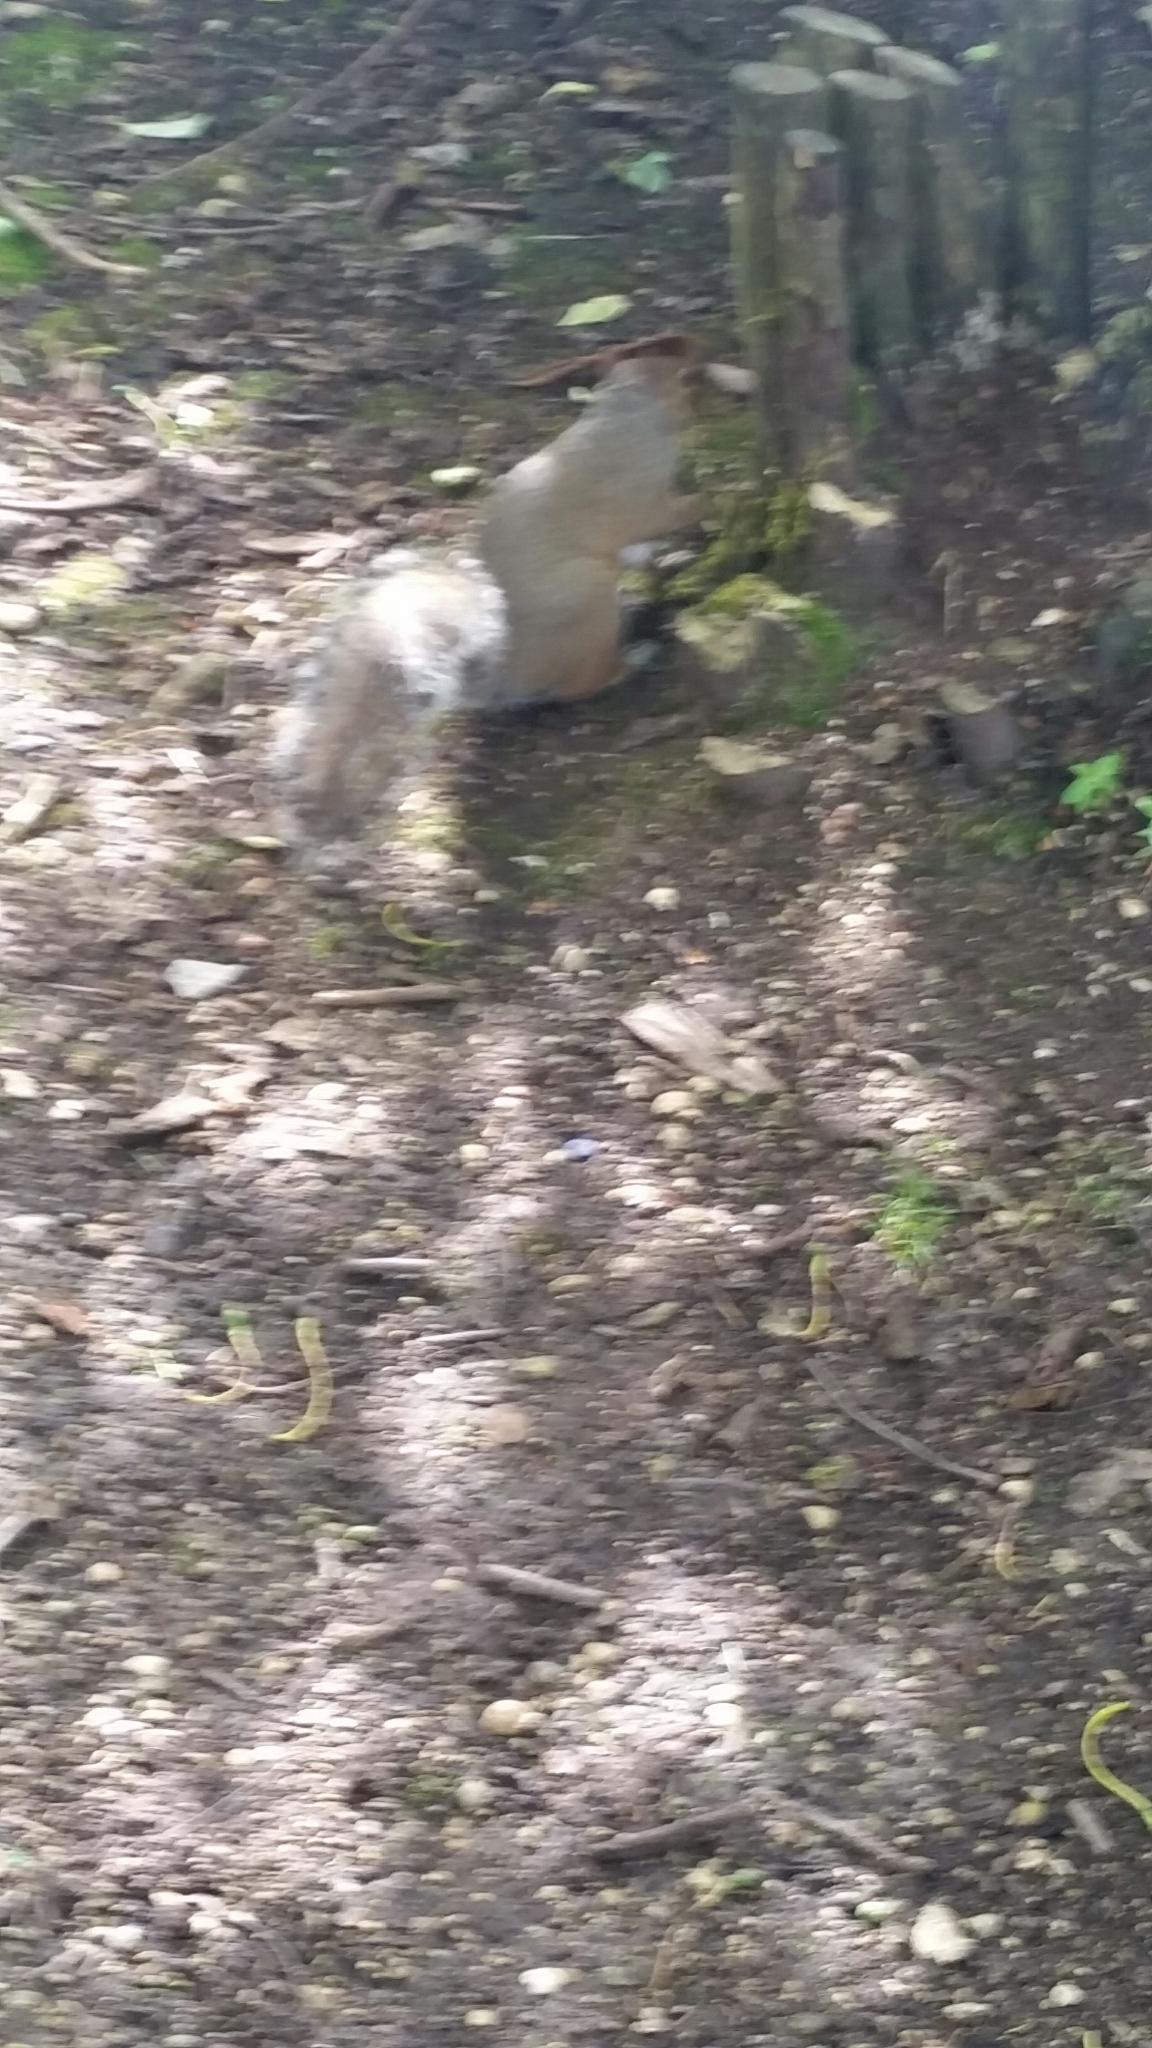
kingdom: Animalia
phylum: Chordata
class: Mammalia
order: Rodentia
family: Sciuridae
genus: Sciurus
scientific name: Sciurus carolinensis
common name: Eastern gray squirrel
